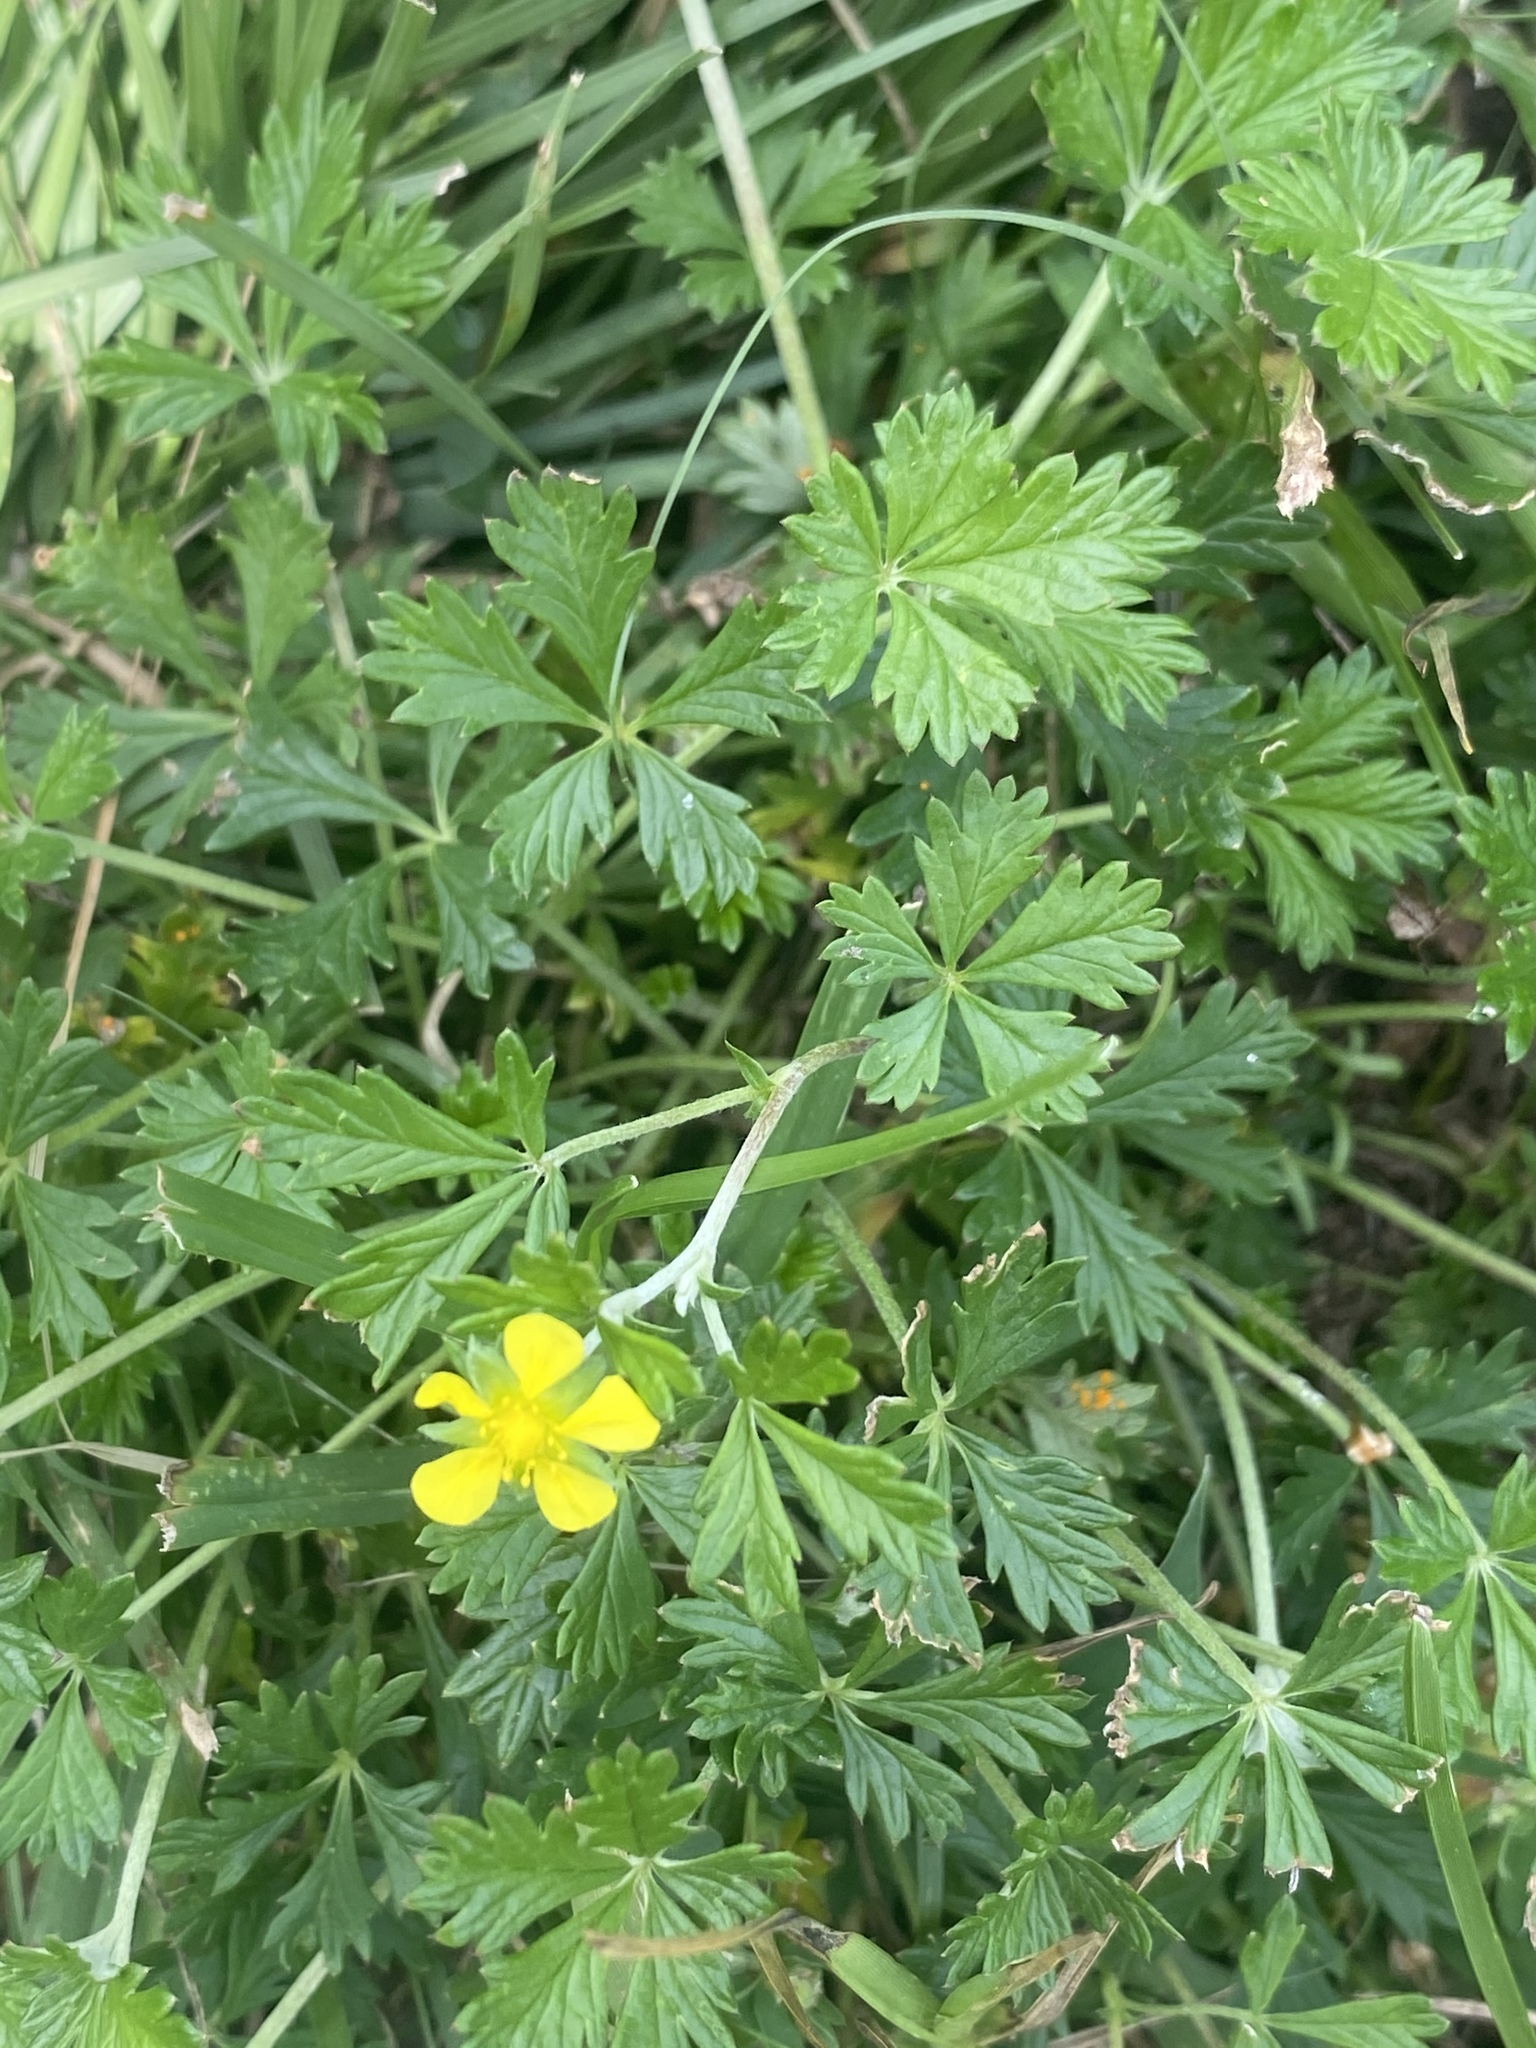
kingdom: Plantae
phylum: Tracheophyta
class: Magnoliopsida
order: Rosales
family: Rosaceae
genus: Potentilla
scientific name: Potentilla argentea
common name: Hoary cinquefoil
